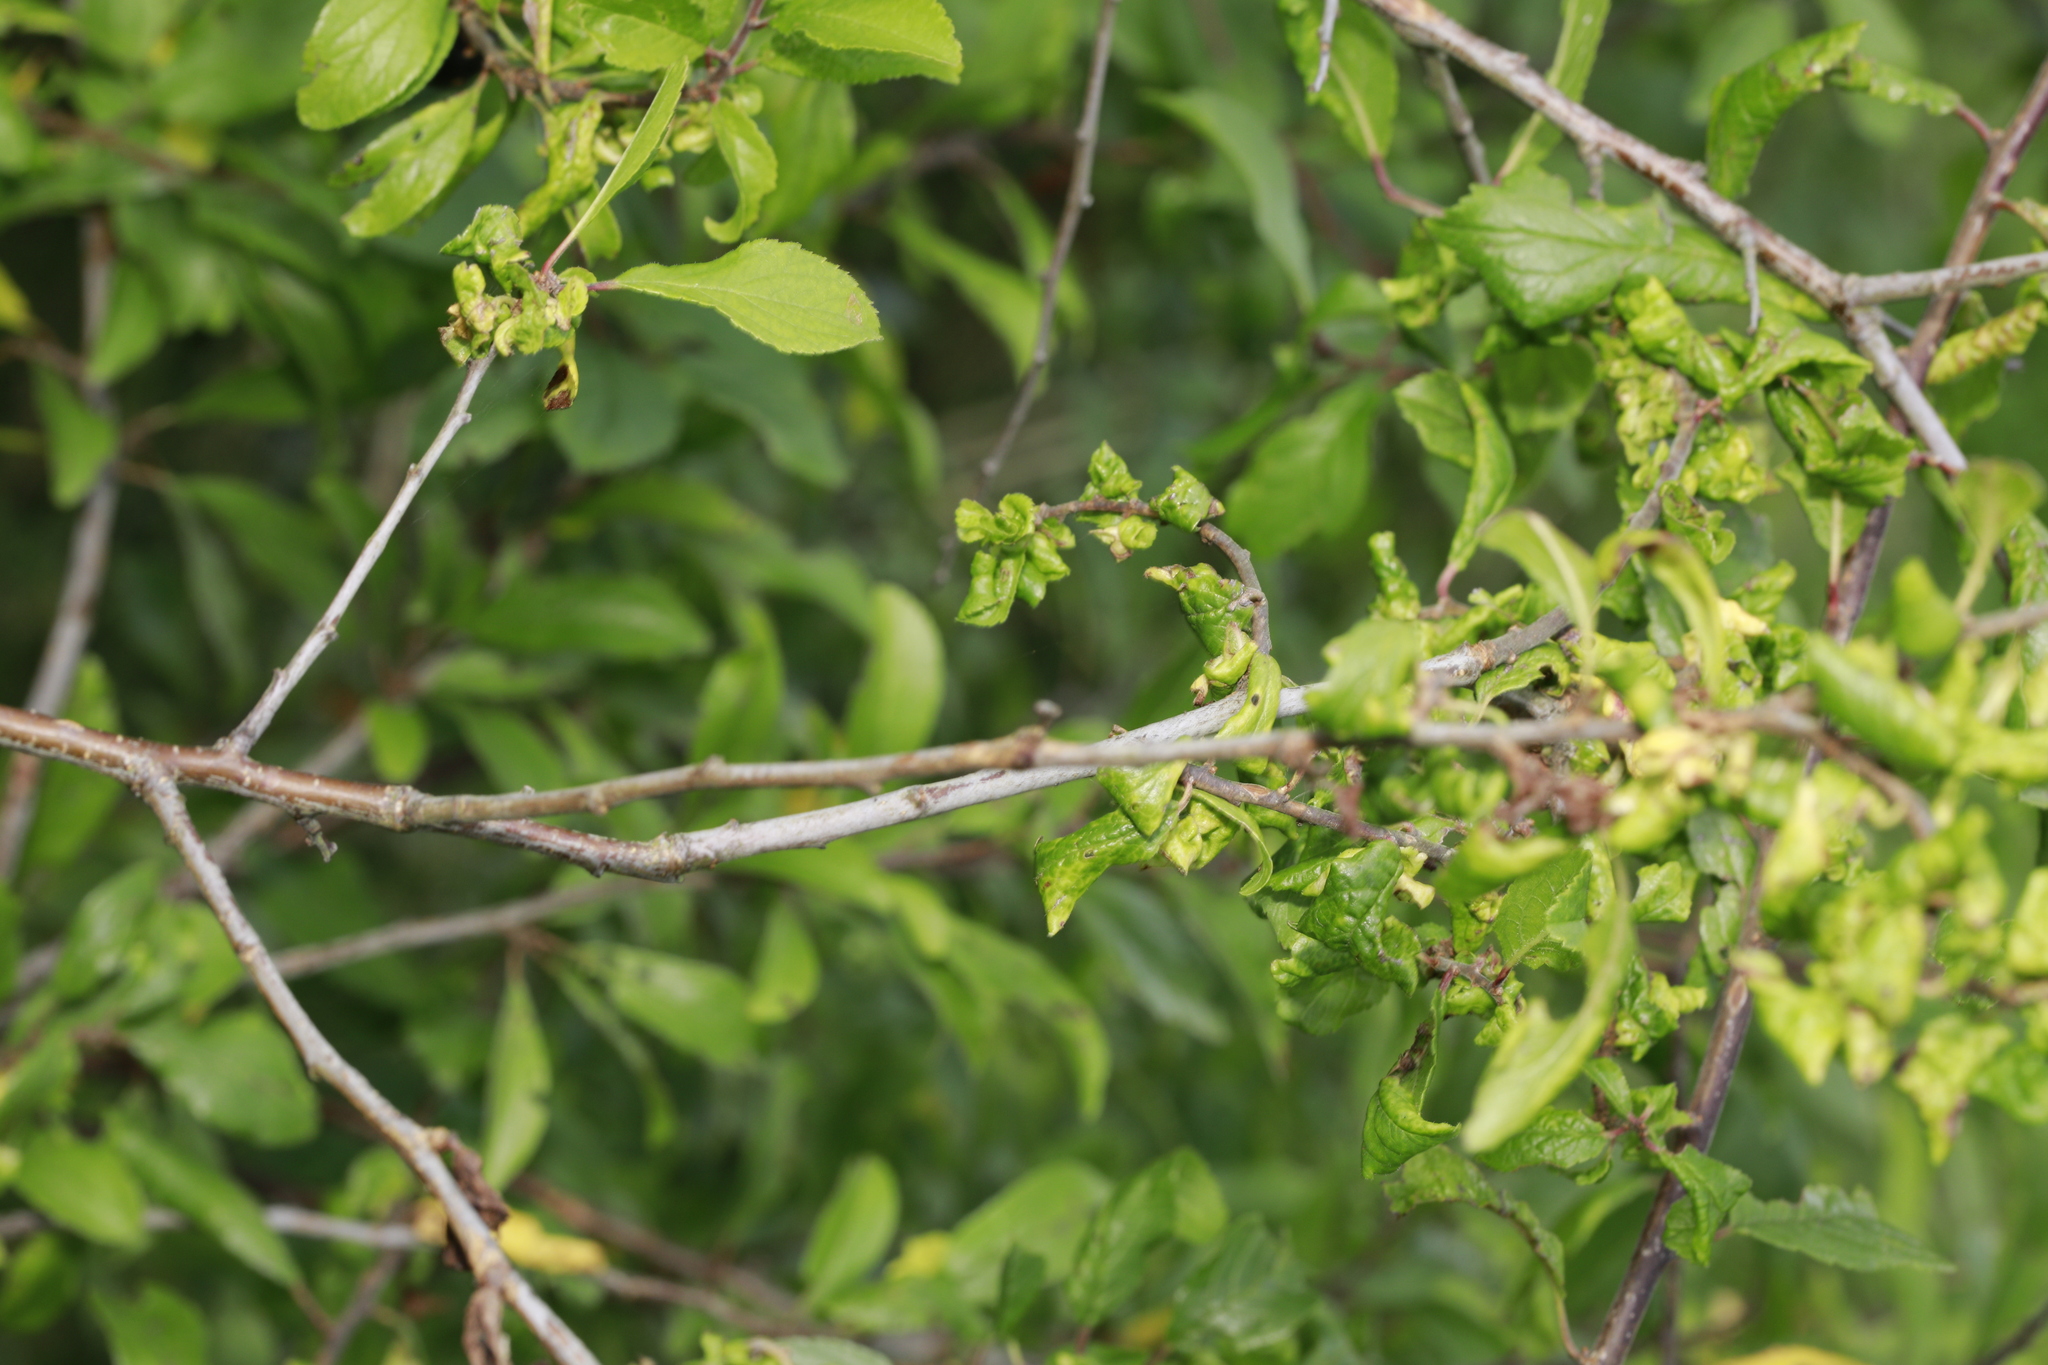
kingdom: Animalia
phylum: Arthropoda
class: Insecta
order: Hemiptera
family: Aphididae
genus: Hyalopterus
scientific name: Hyalopterus pruni
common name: Mealy plum aphid
